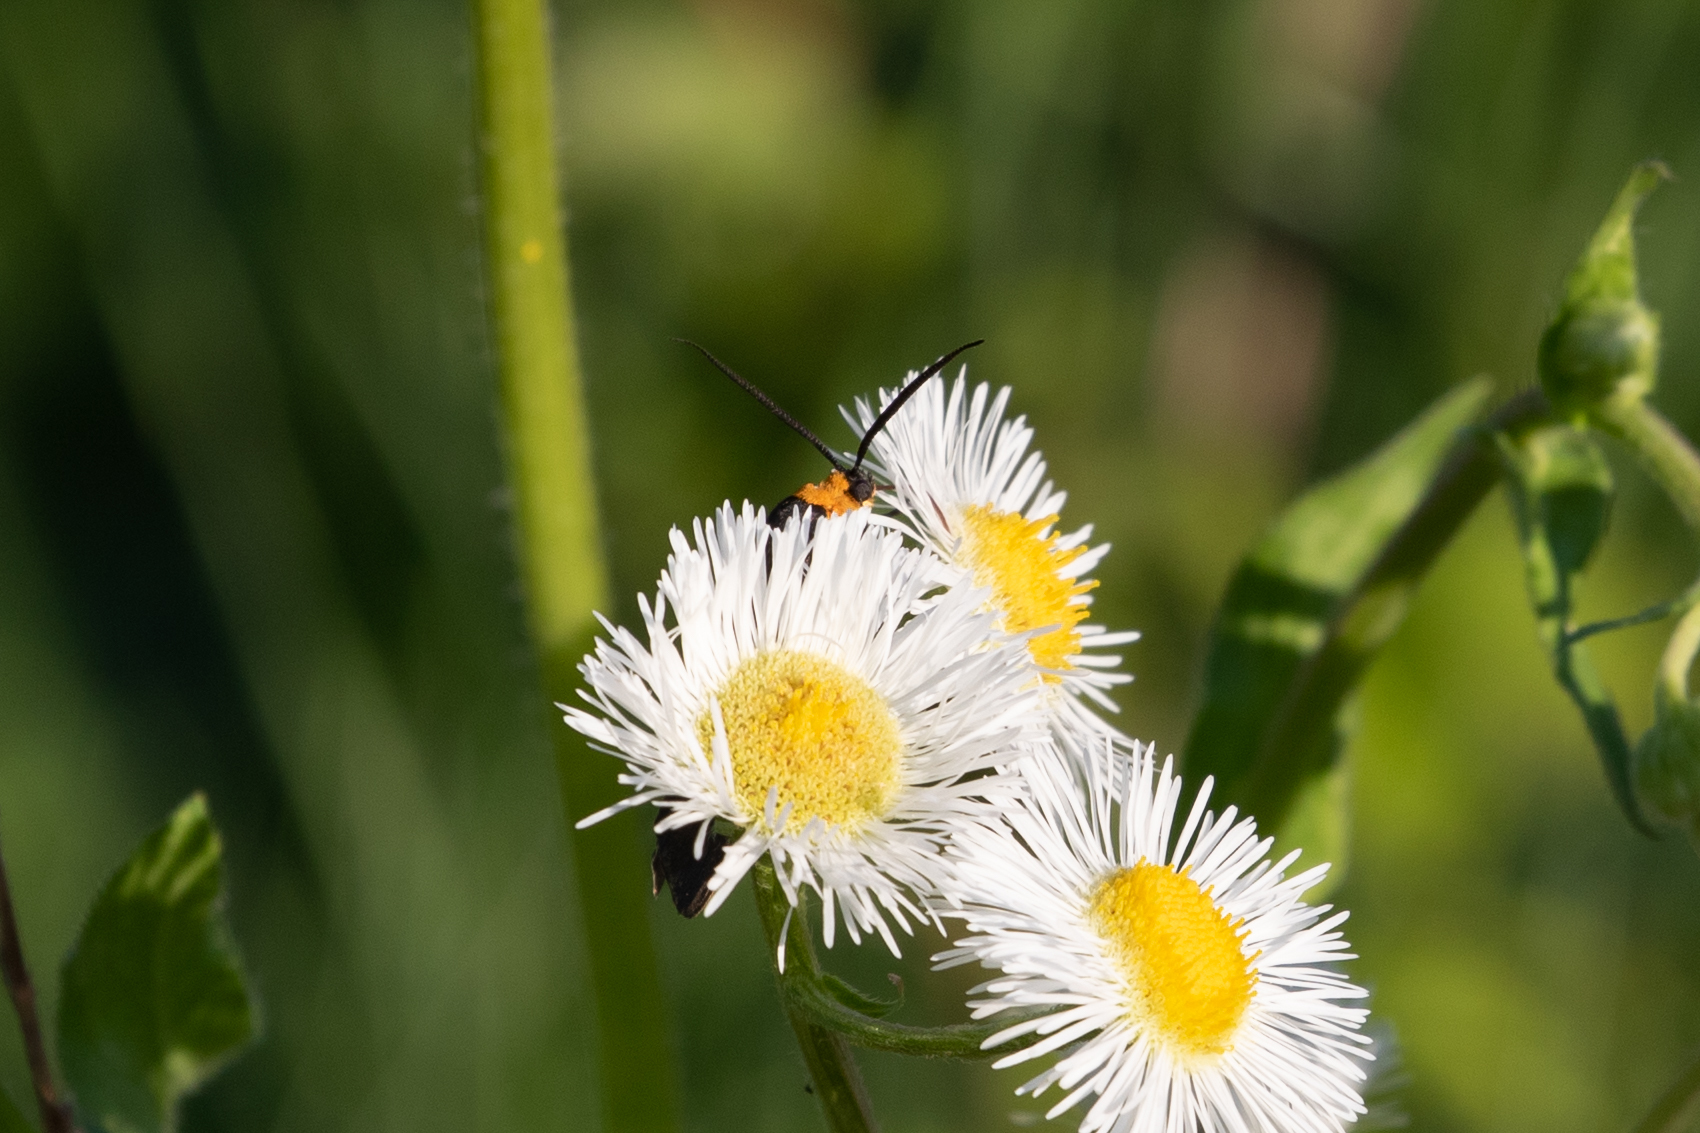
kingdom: Animalia
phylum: Arthropoda
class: Insecta
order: Lepidoptera
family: Erebidae
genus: Cisseps
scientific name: Cisseps fulvicollis
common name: Yellow-collared scape moth
